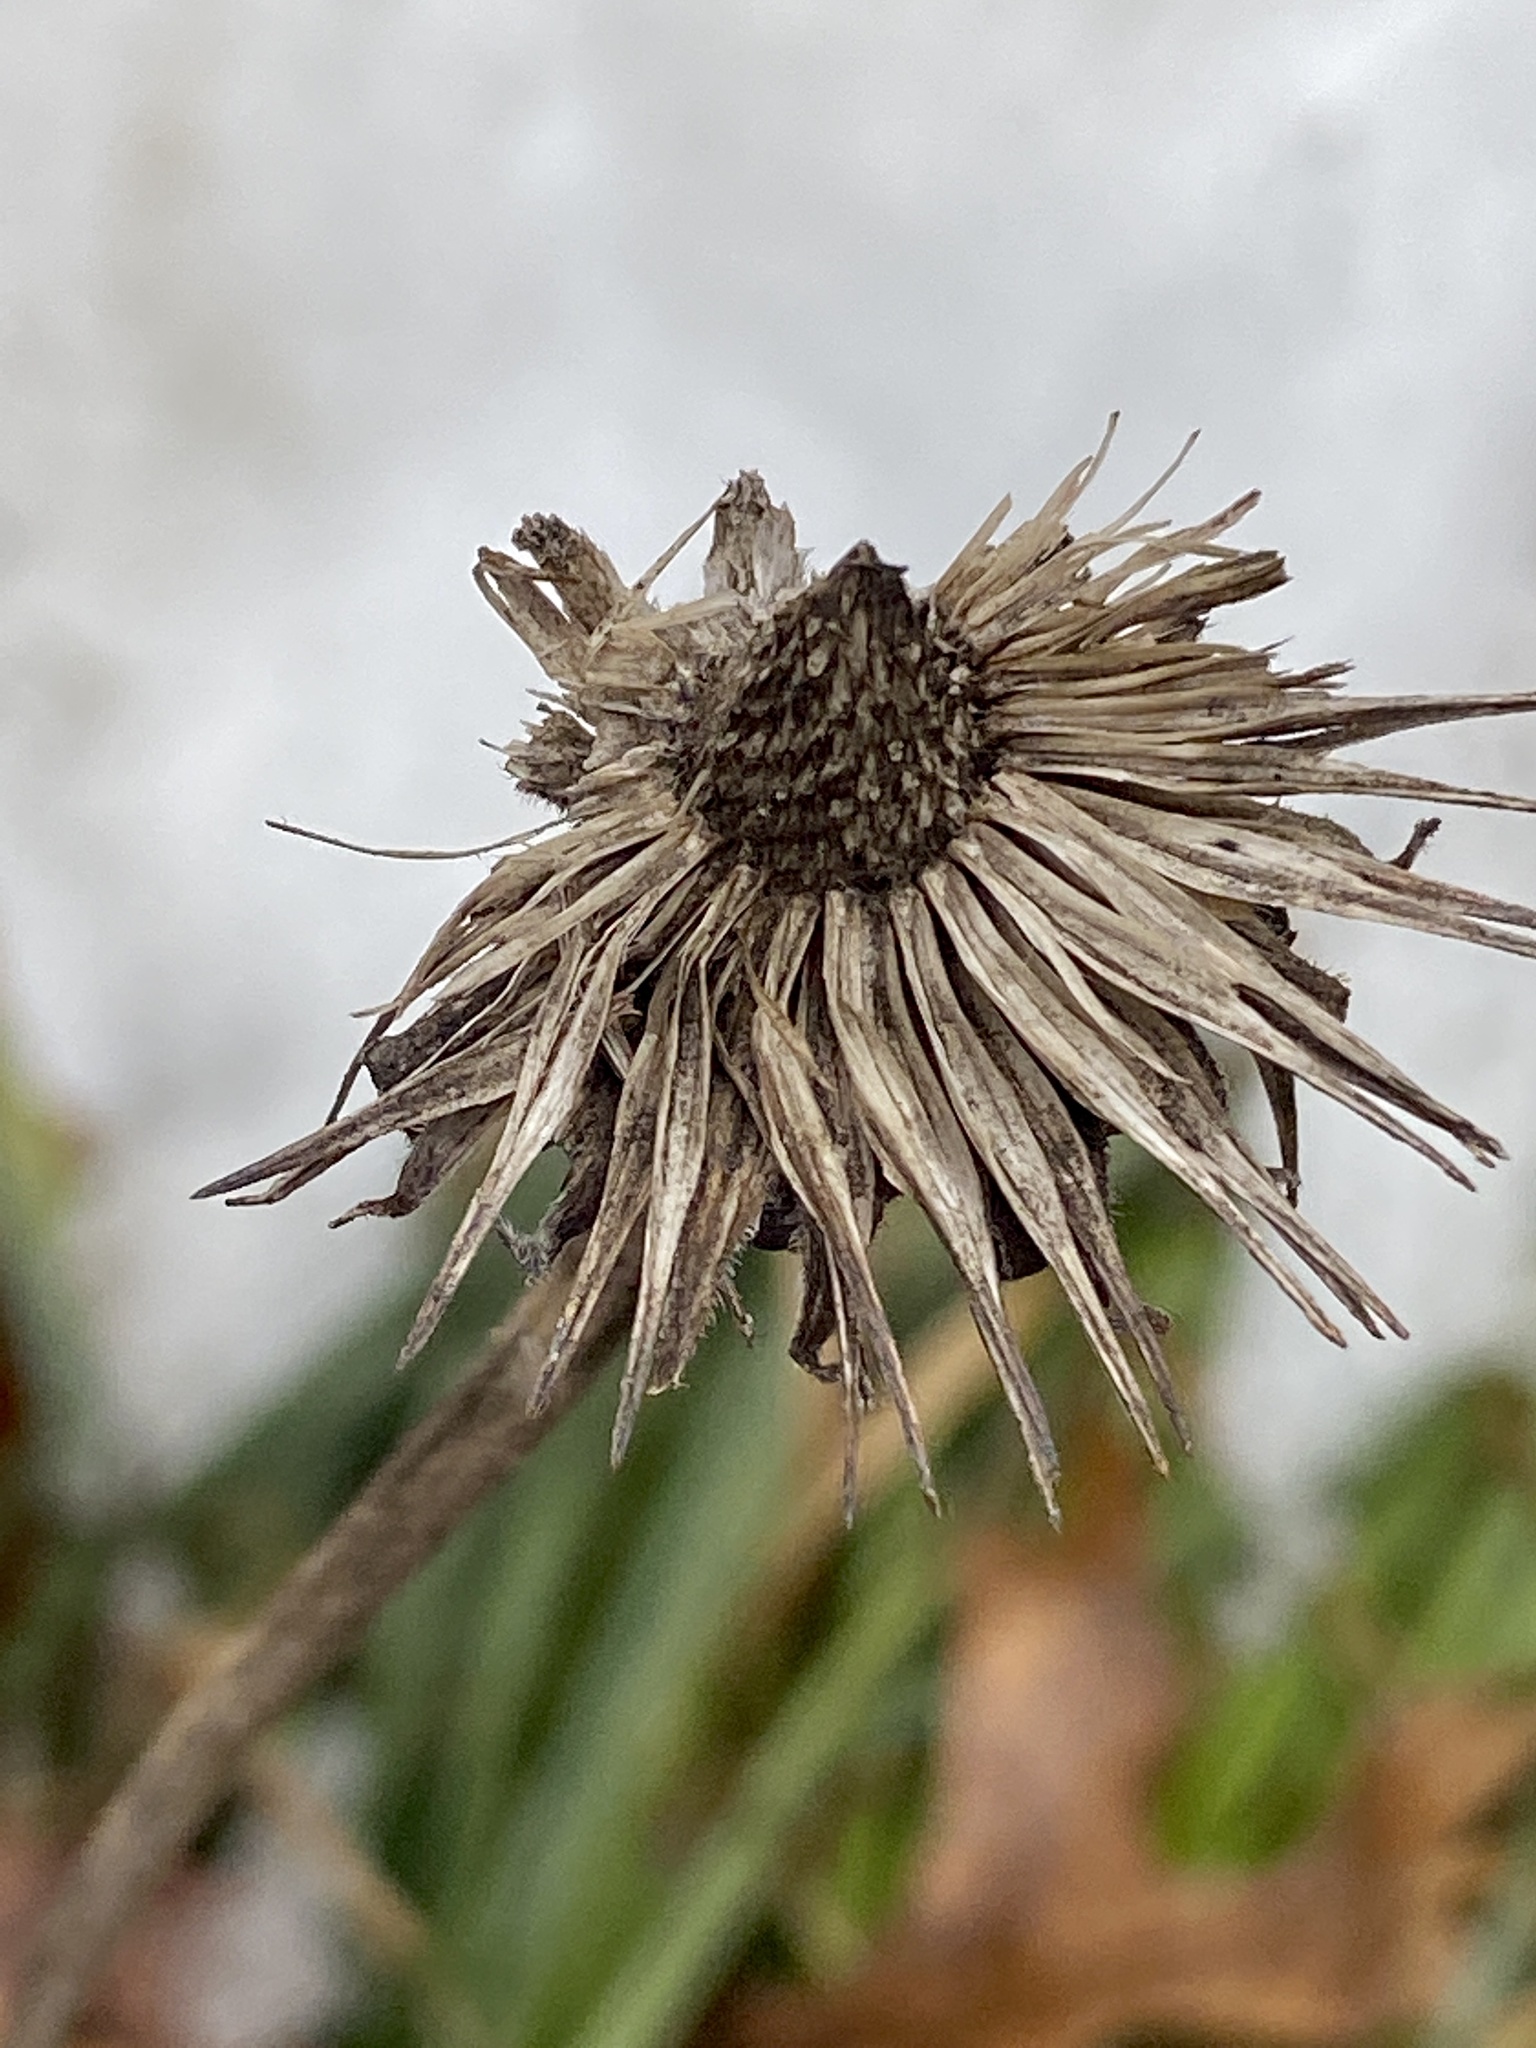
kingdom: Plantae
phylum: Tracheophyta
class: Magnoliopsida
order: Asterales
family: Asteraceae
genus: Echinacea
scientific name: Echinacea purpurea
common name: Broad-leaved purple coneflower
